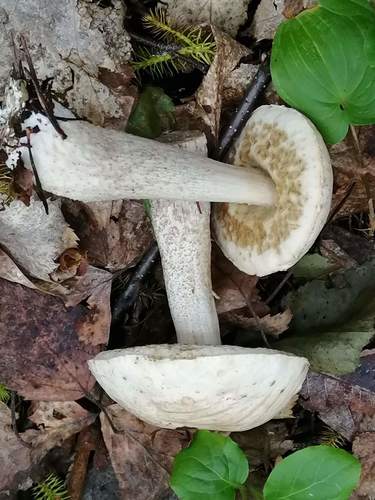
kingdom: Fungi
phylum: Basidiomycota
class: Agaricomycetes
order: Boletales
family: Boletaceae
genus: Leccinum
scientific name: Leccinum
